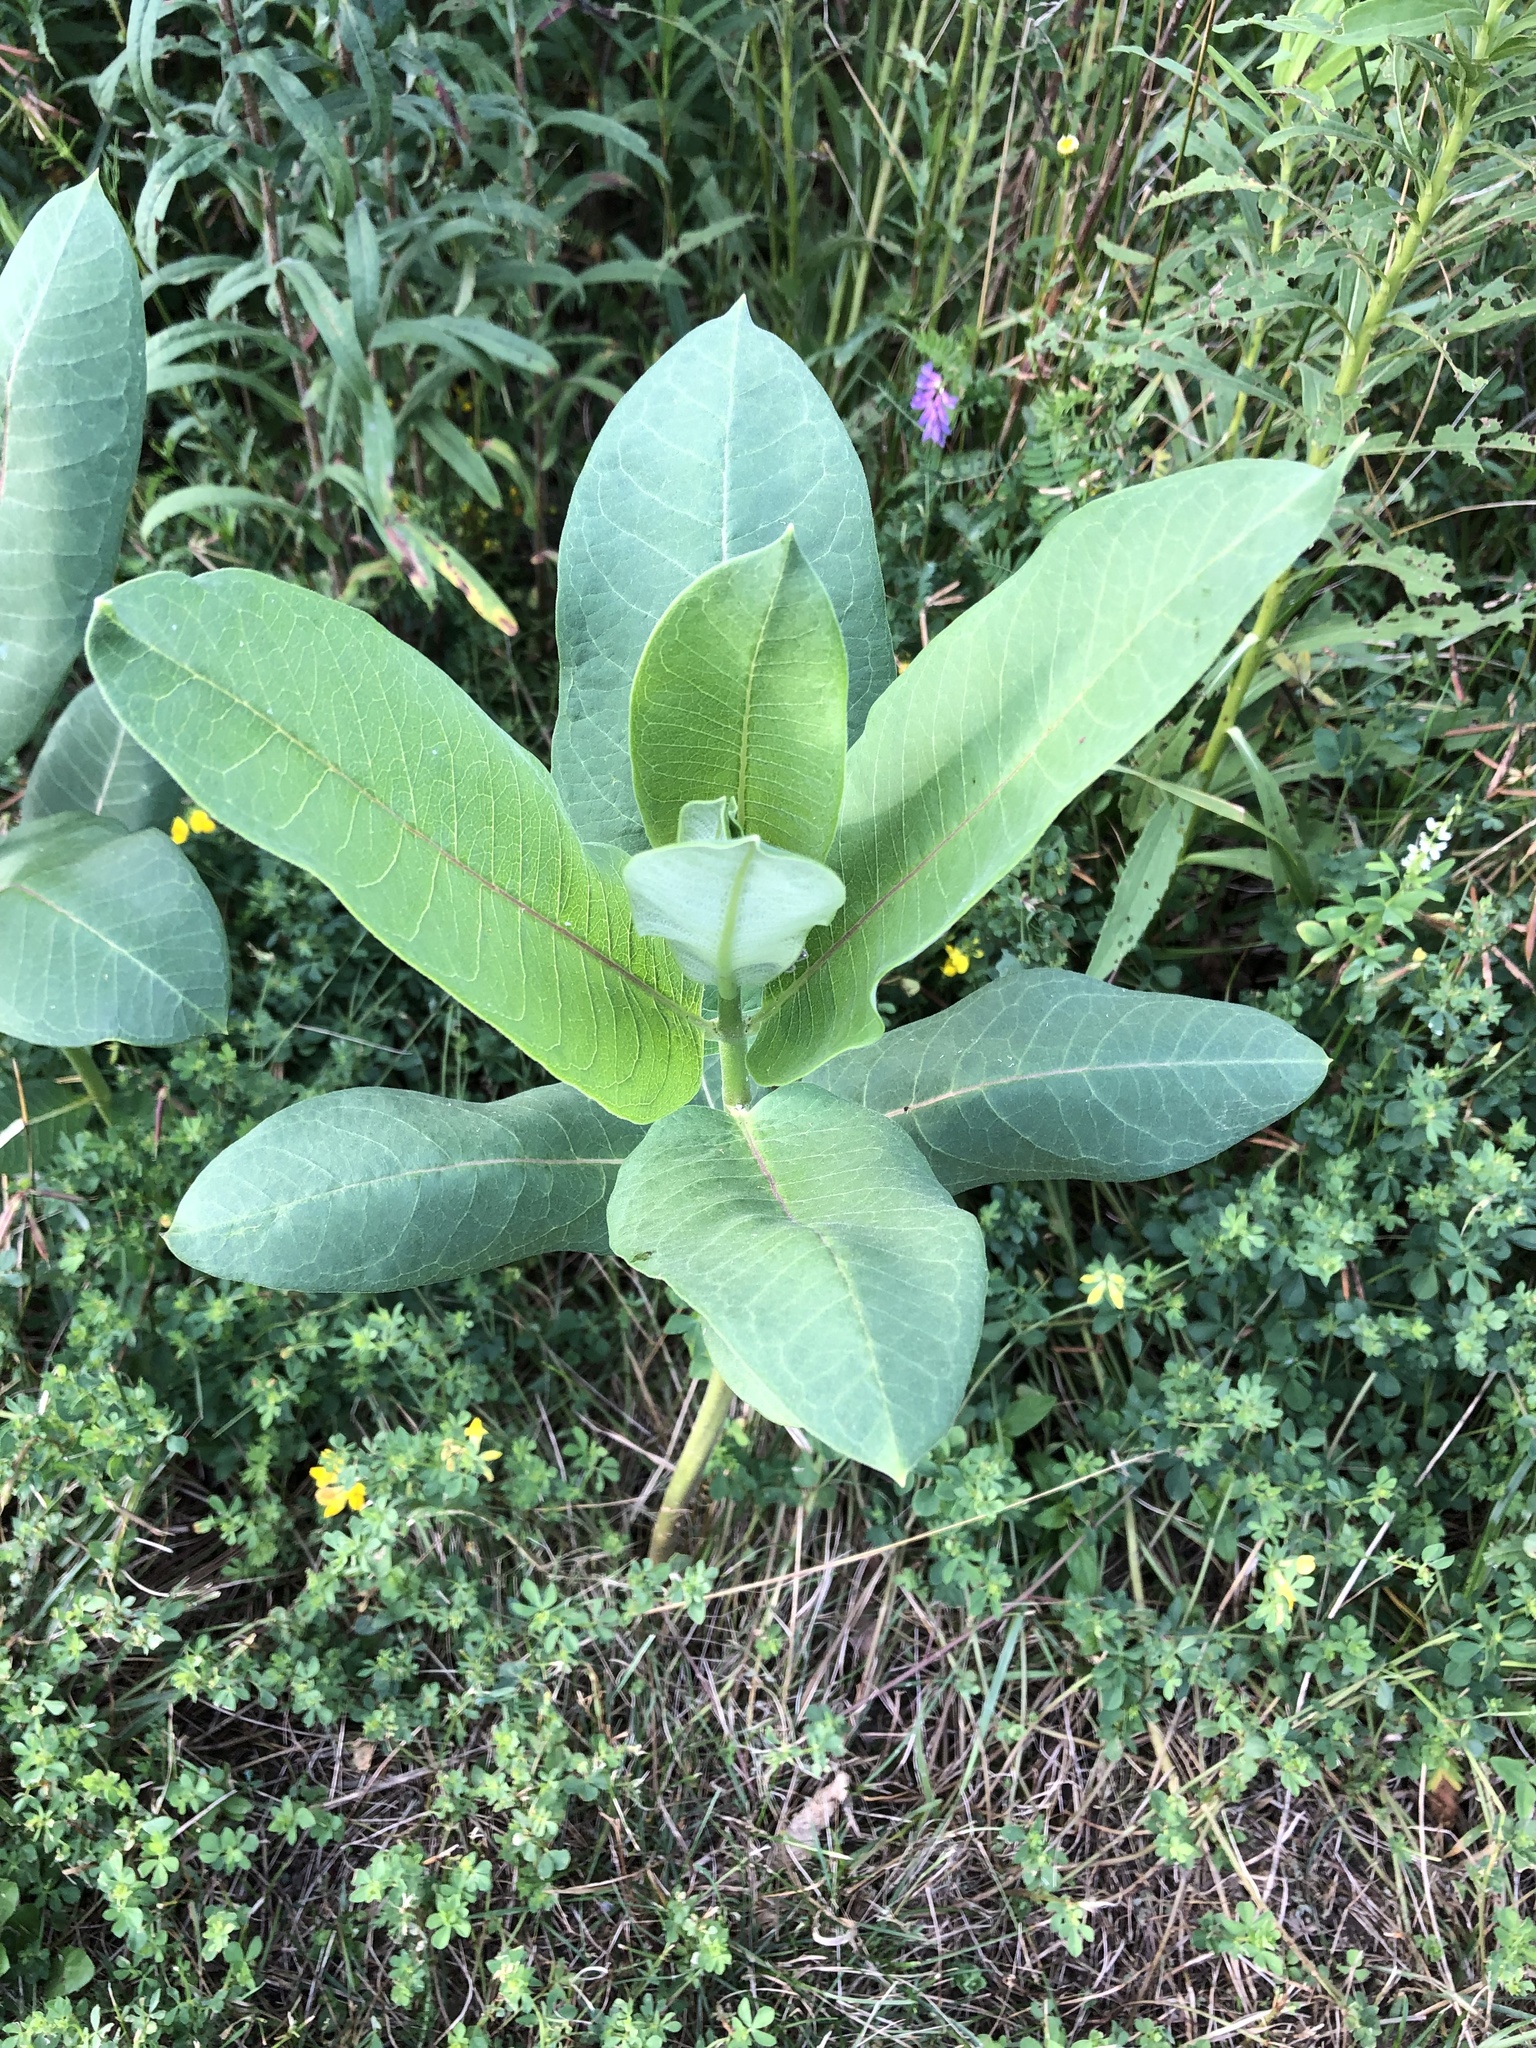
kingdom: Plantae
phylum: Tracheophyta
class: Magnoliopsida
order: Gentianales
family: Apocynaceae
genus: Asclepias
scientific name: Asclepias syriaca
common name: Common milkweed
